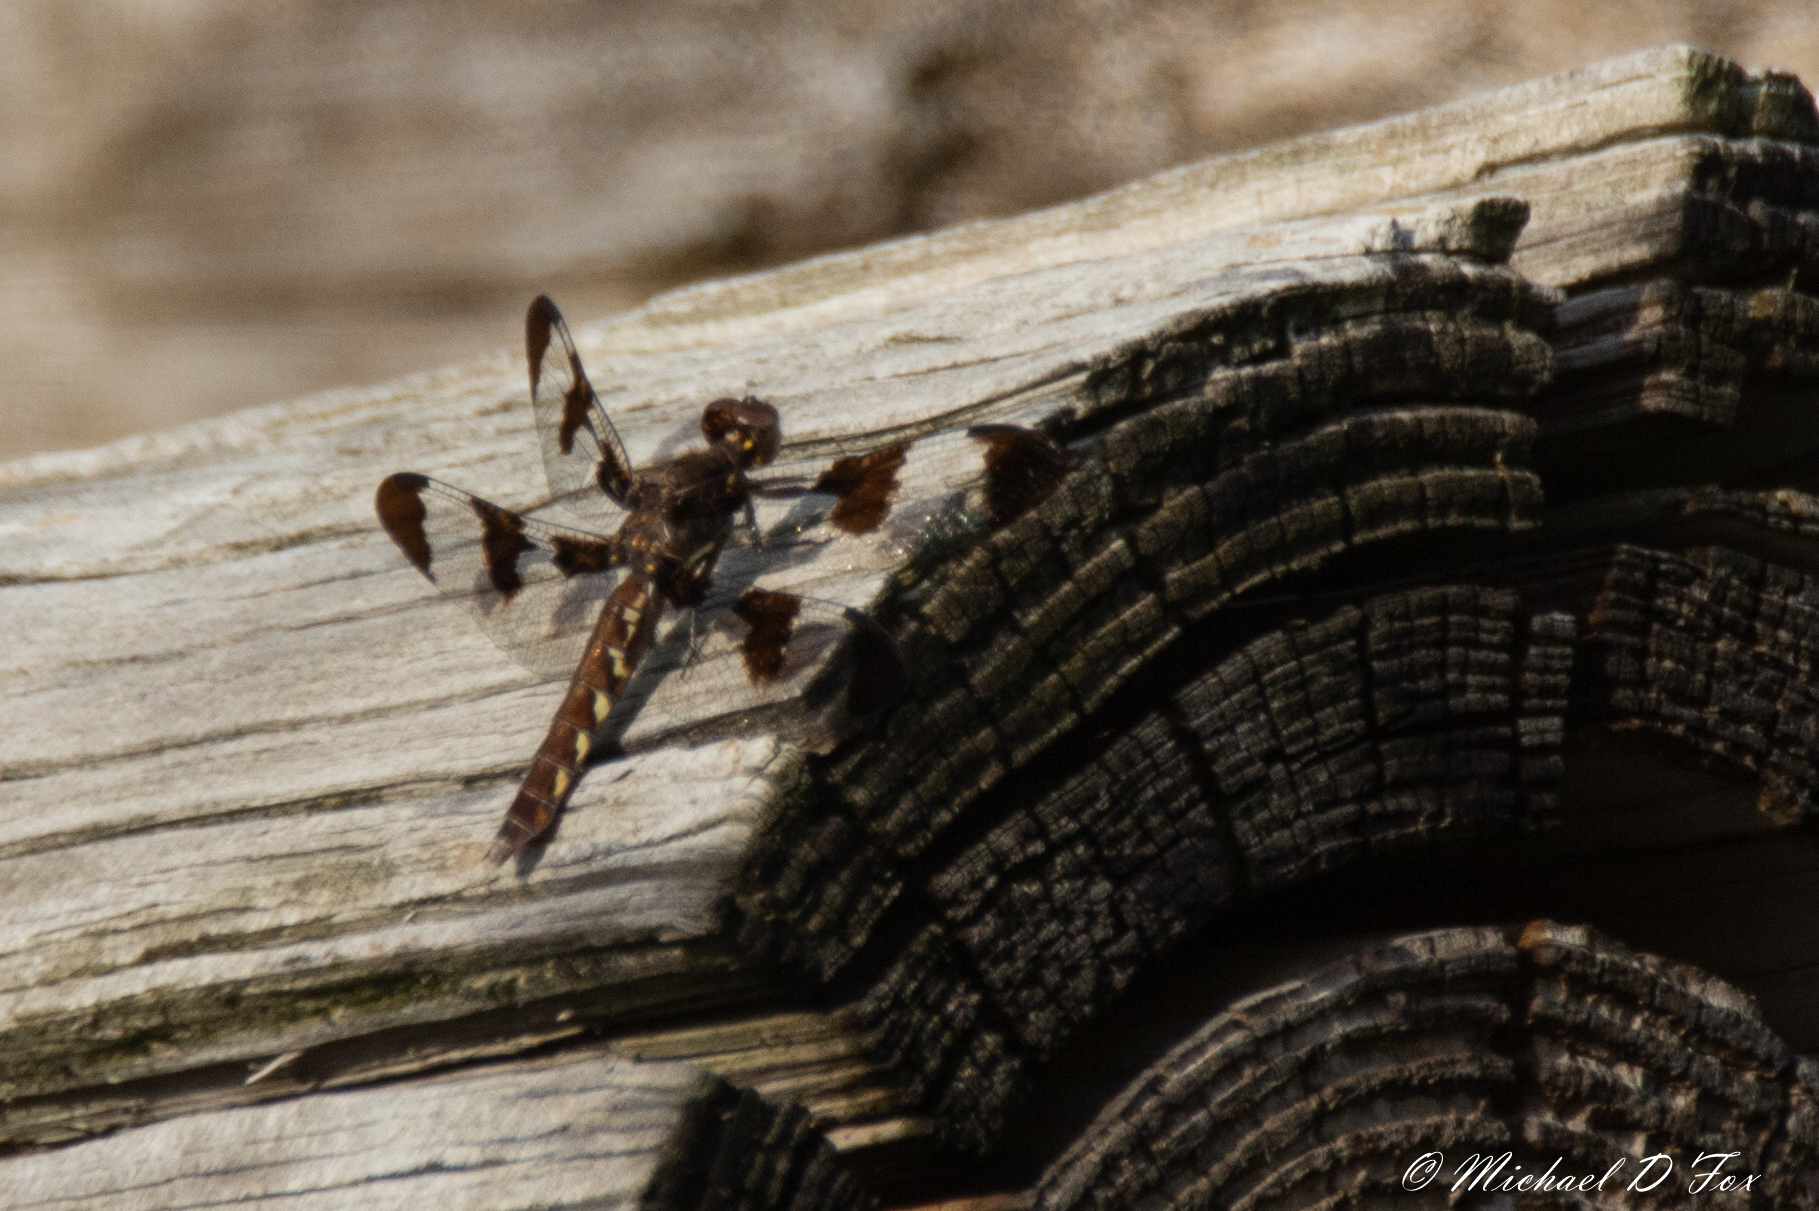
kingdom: Animalia
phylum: Arthropoda
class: Insecta
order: Odonata
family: Libellulidae
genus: Plathemis
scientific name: Plathemis lydia
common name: Common whitetail
